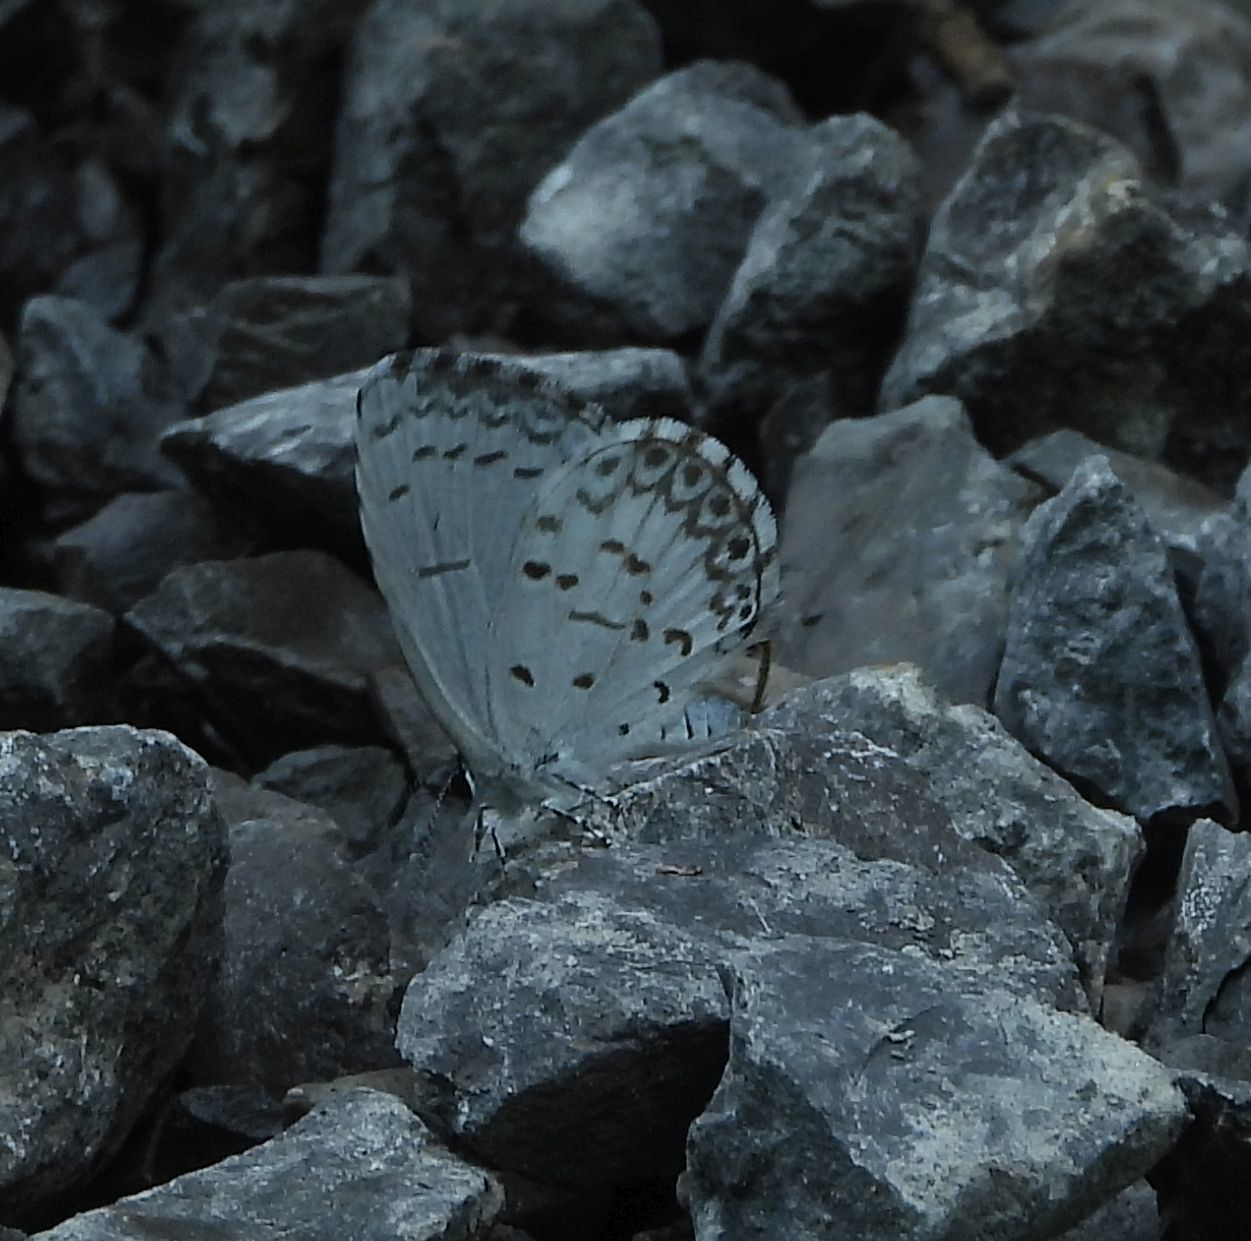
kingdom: Animalia
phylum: Arthropoda
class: Insecta
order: Lepidoptera
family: Lycaenidae
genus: Celastrina
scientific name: Celastrina lucia
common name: Lucia azure
